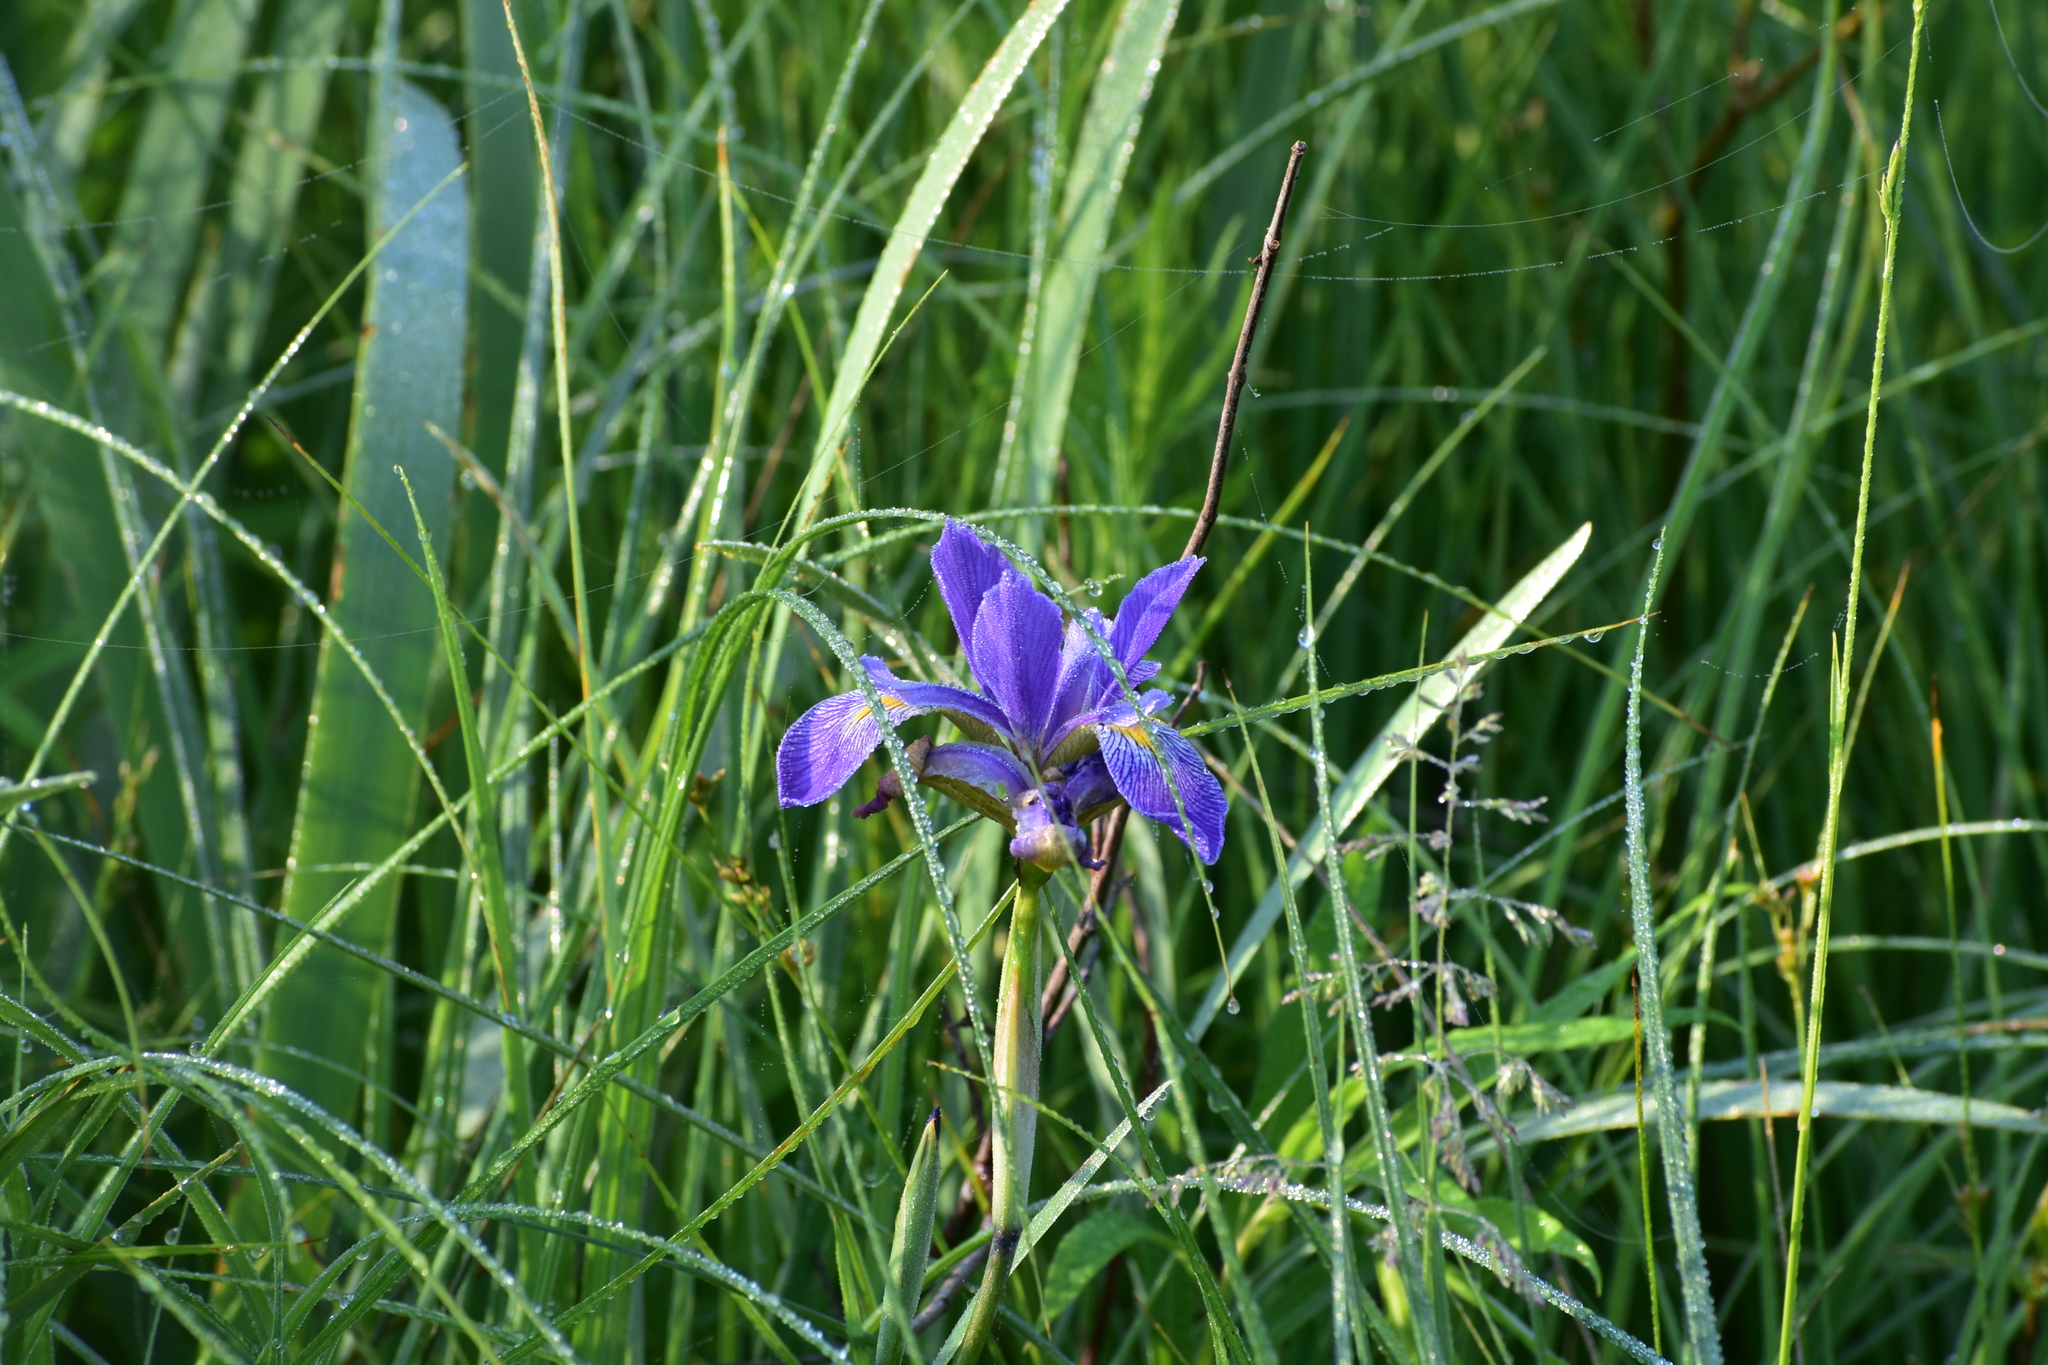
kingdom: Plantae
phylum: Tracheophyta
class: Liliopsida
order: Asparagales
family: Iridaceae
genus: Iris
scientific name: Iris virginica
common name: Southern blue flag
